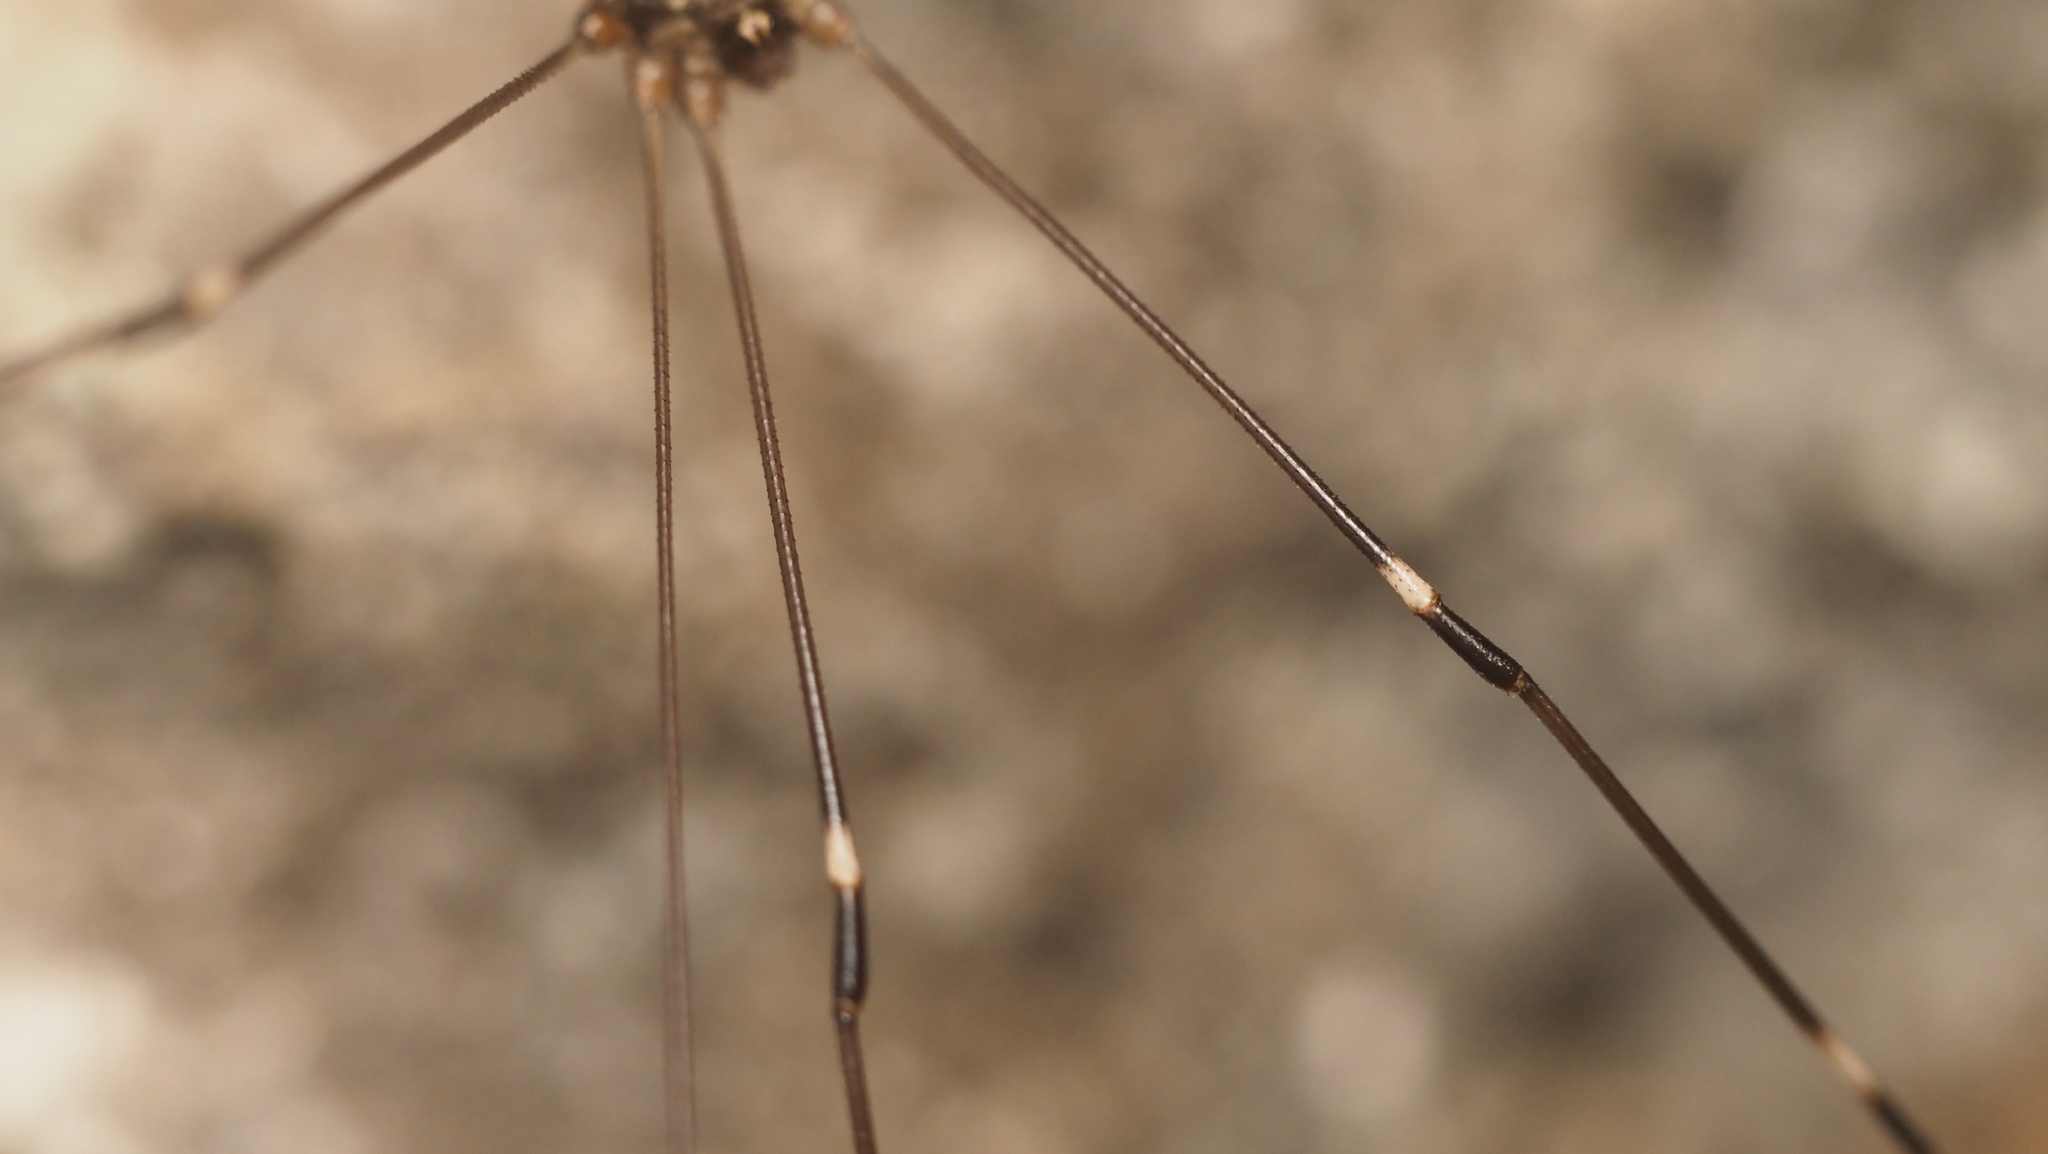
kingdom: Animalia
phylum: Arthropoda
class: Arachnida
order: Opiliones
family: Sclerosomatidae
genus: Leiobunum
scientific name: Leiobunum townsendi
